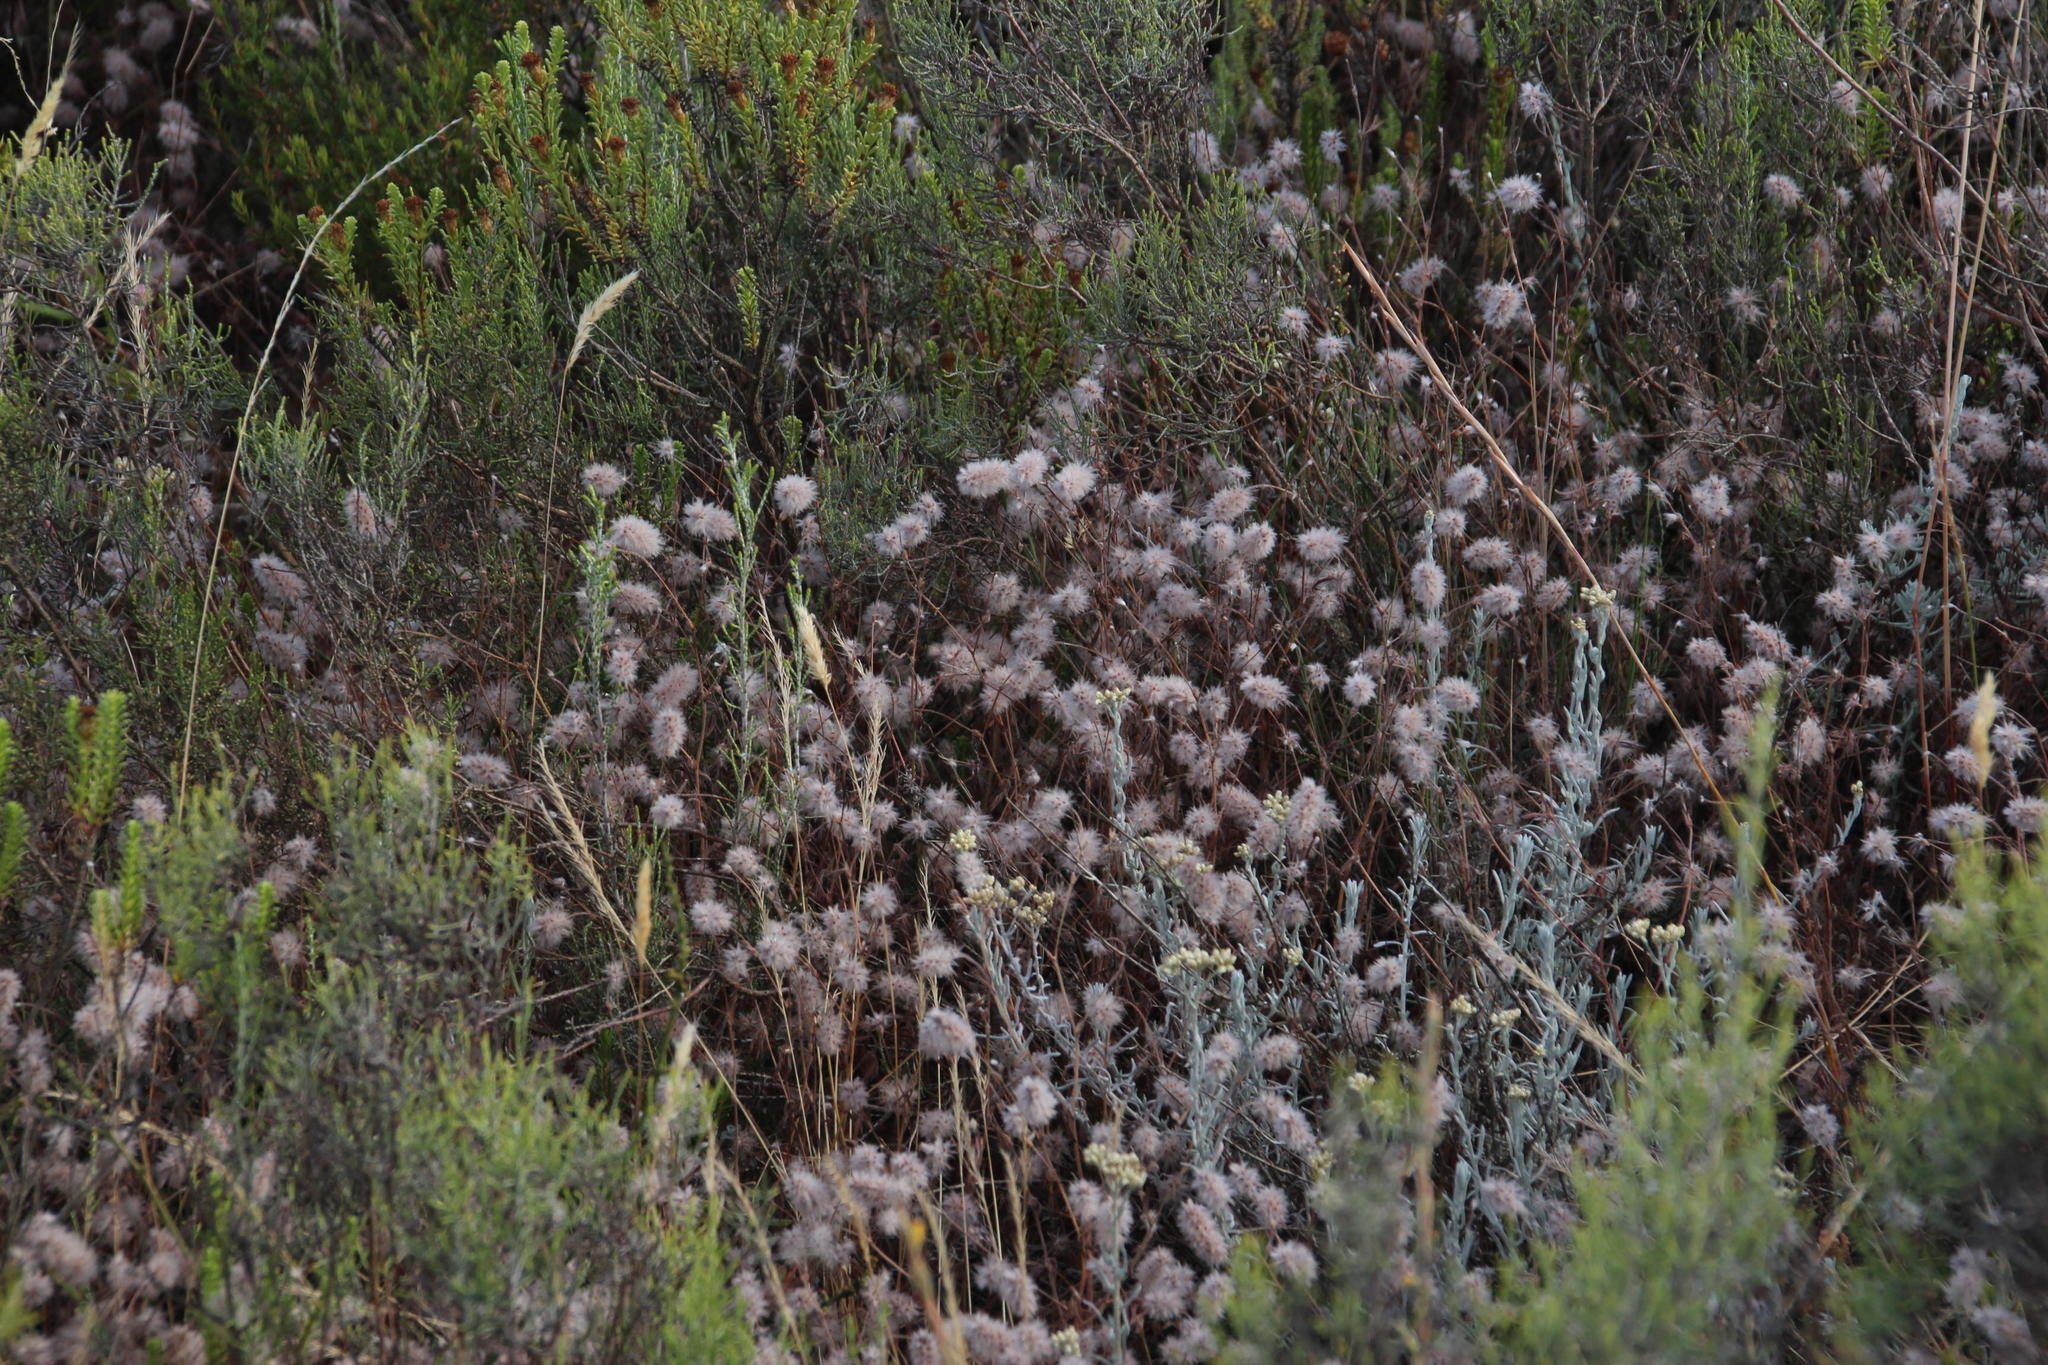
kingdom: Plantae
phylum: Tracheophyta
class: Magnoliopsida
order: Fabales
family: Fabaceae
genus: Trifolium
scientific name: Trifolium arvense
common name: Hare's-foot clover
